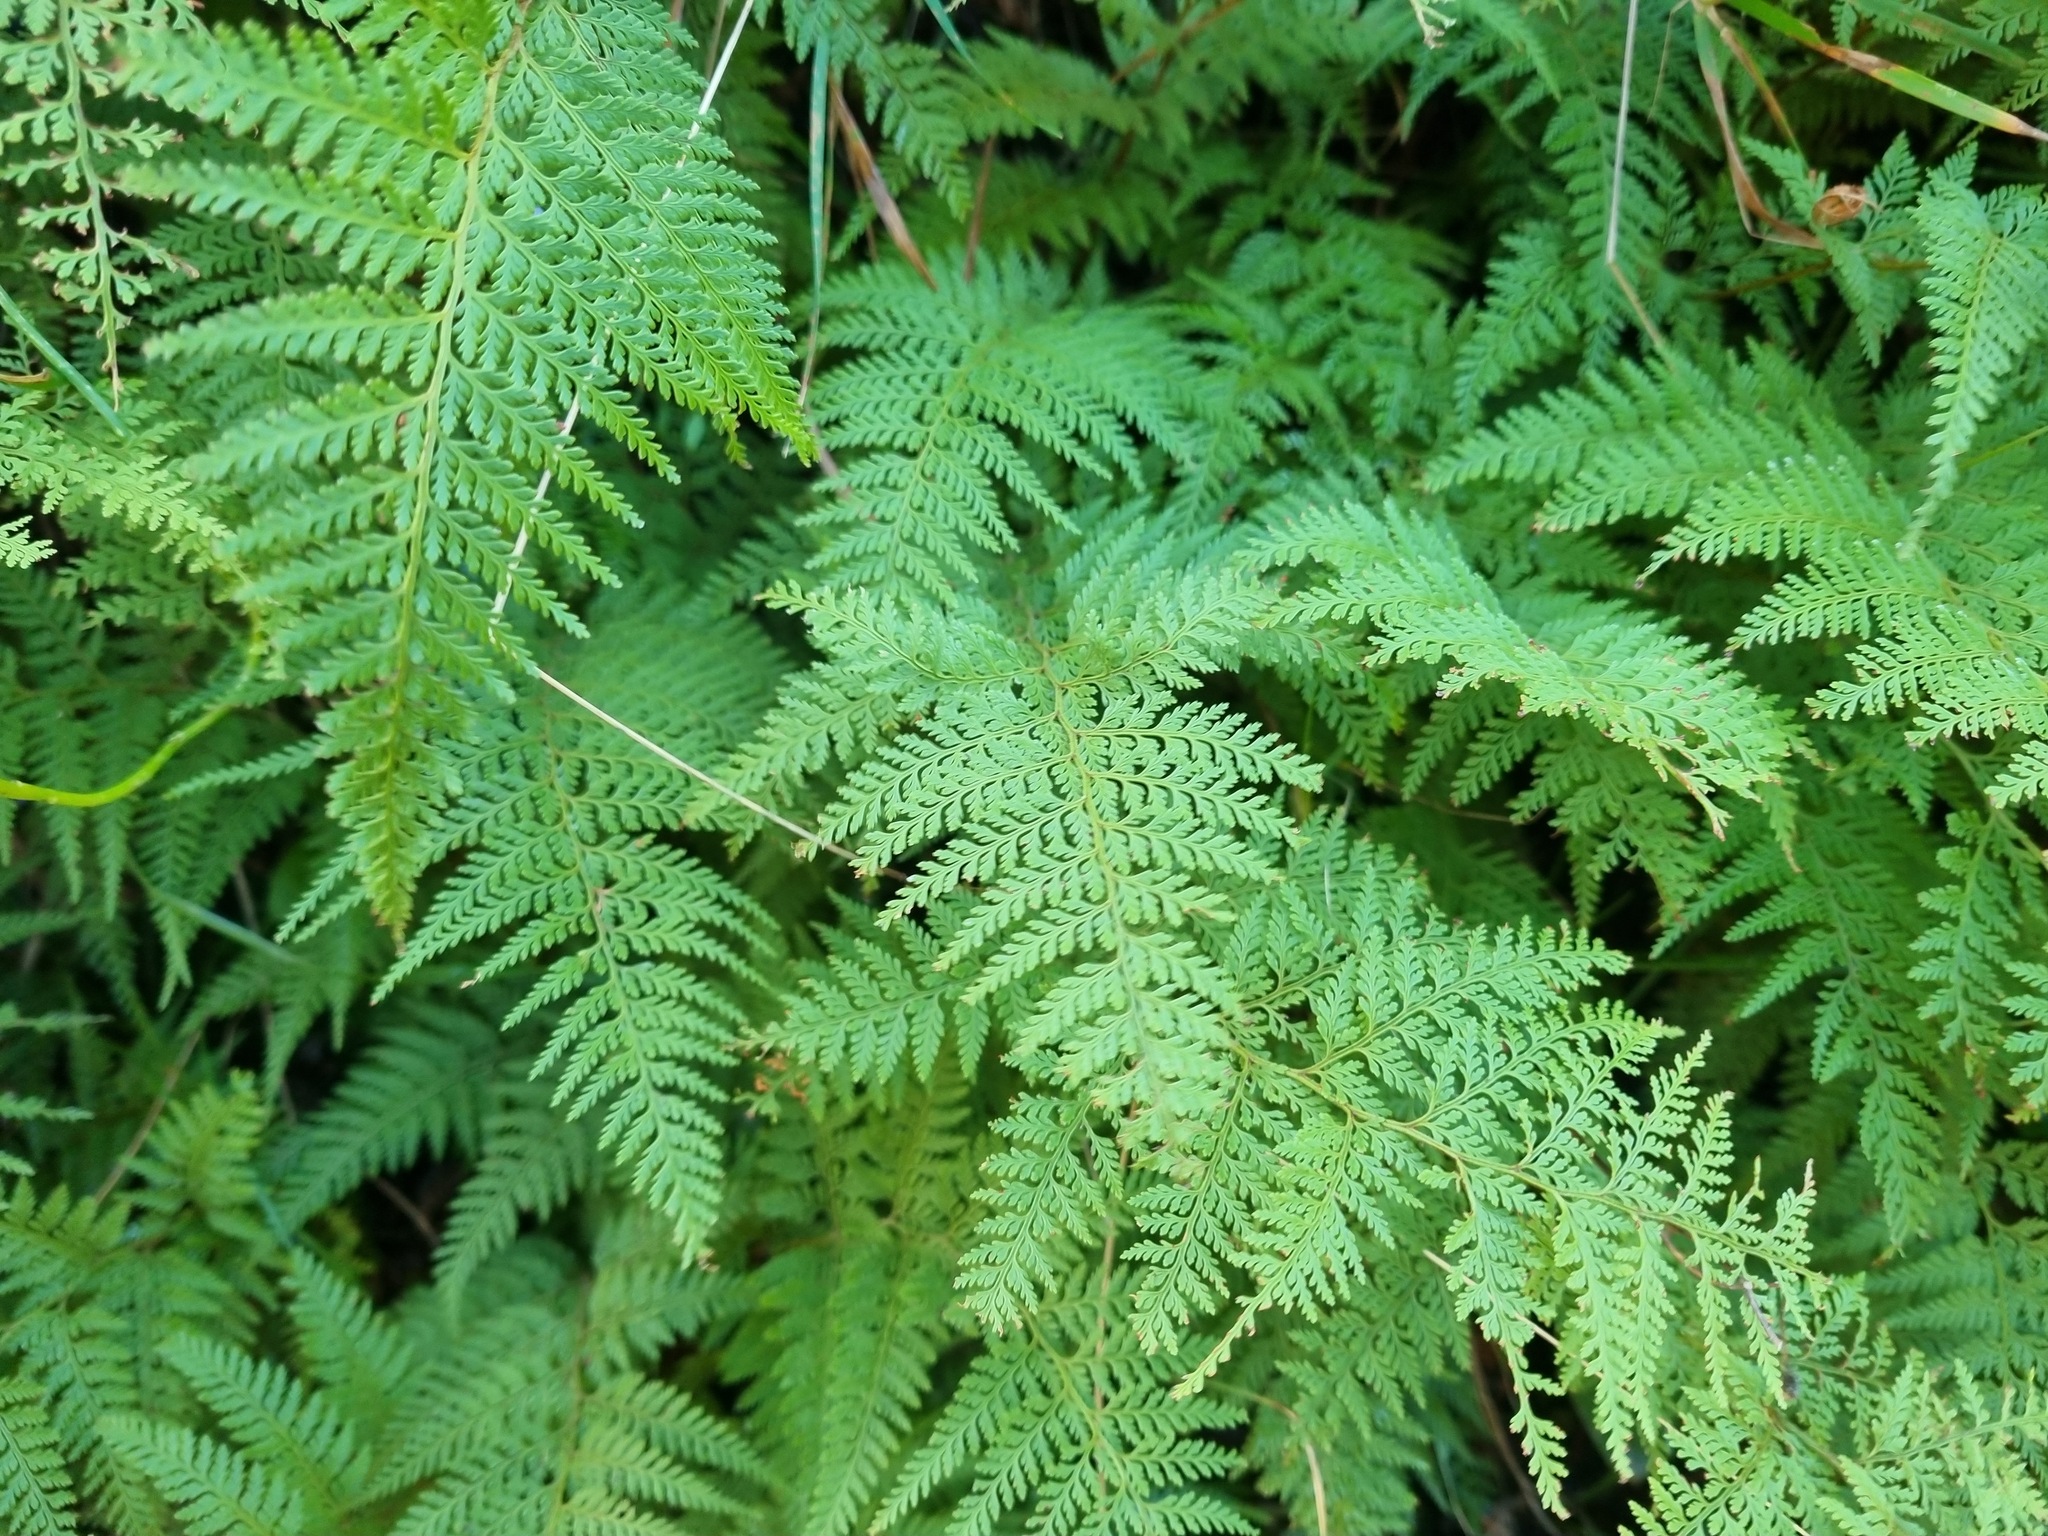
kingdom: Plantae
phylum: Tracheophyta
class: Polypodiopsida
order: Polypodiales
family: Dennstaedtiaceae
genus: Paesia
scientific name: Paesia scaberula
